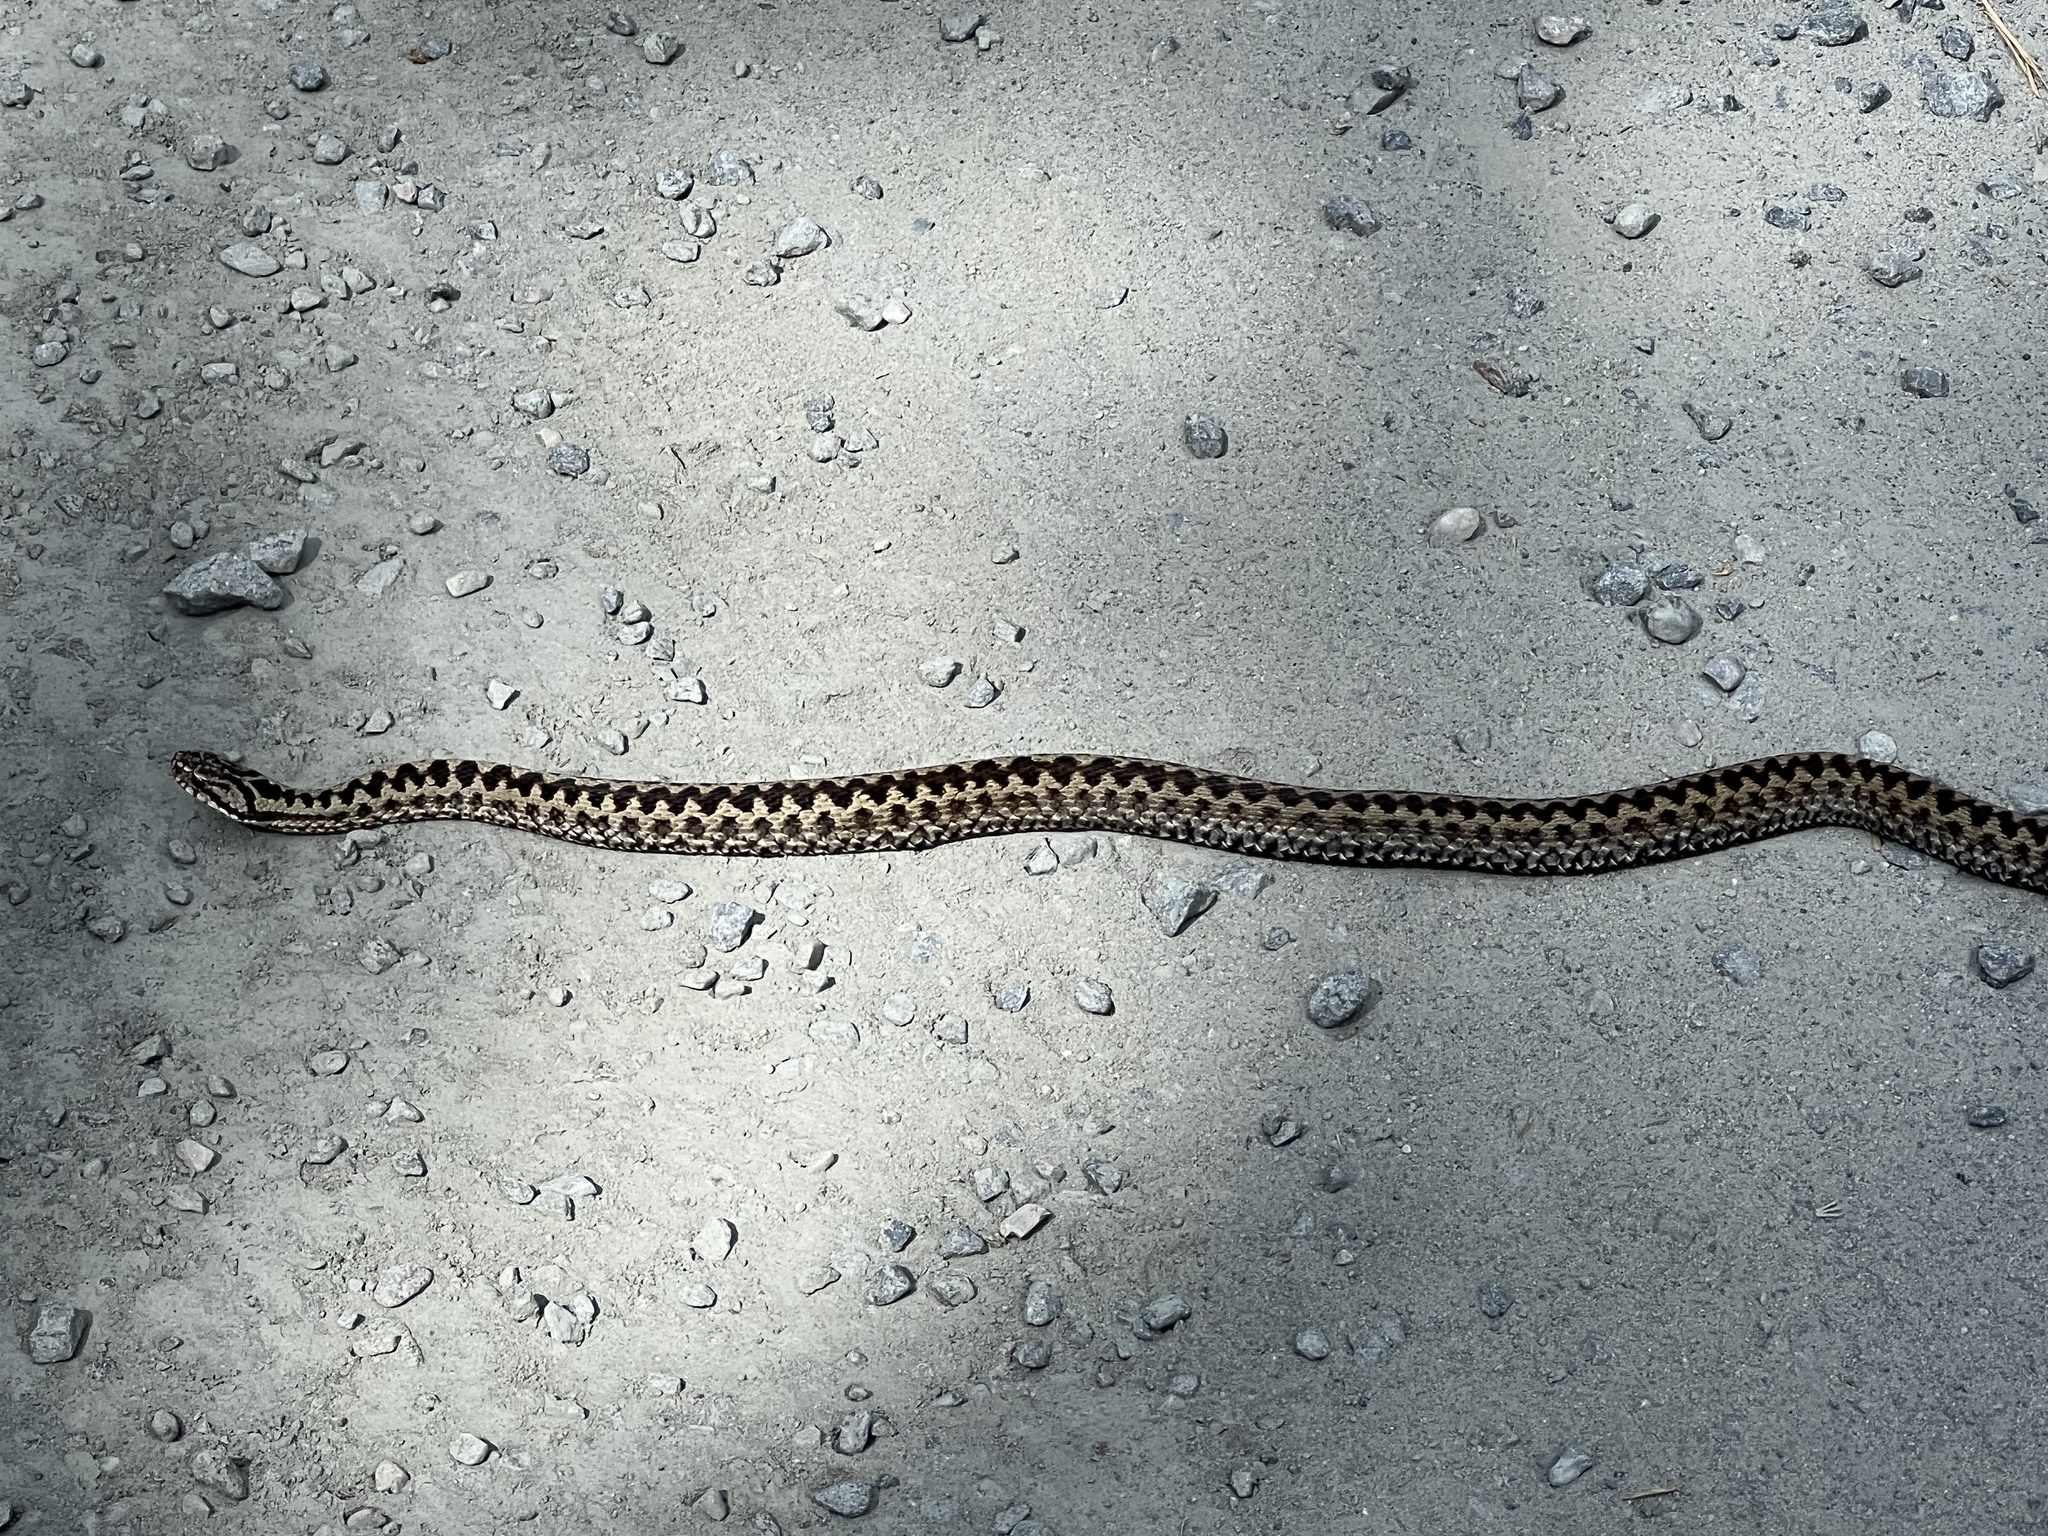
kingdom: Animalia
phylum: Chordata
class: Squamata
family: Viperidae
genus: Vipera
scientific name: Vipera berus
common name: Adder
